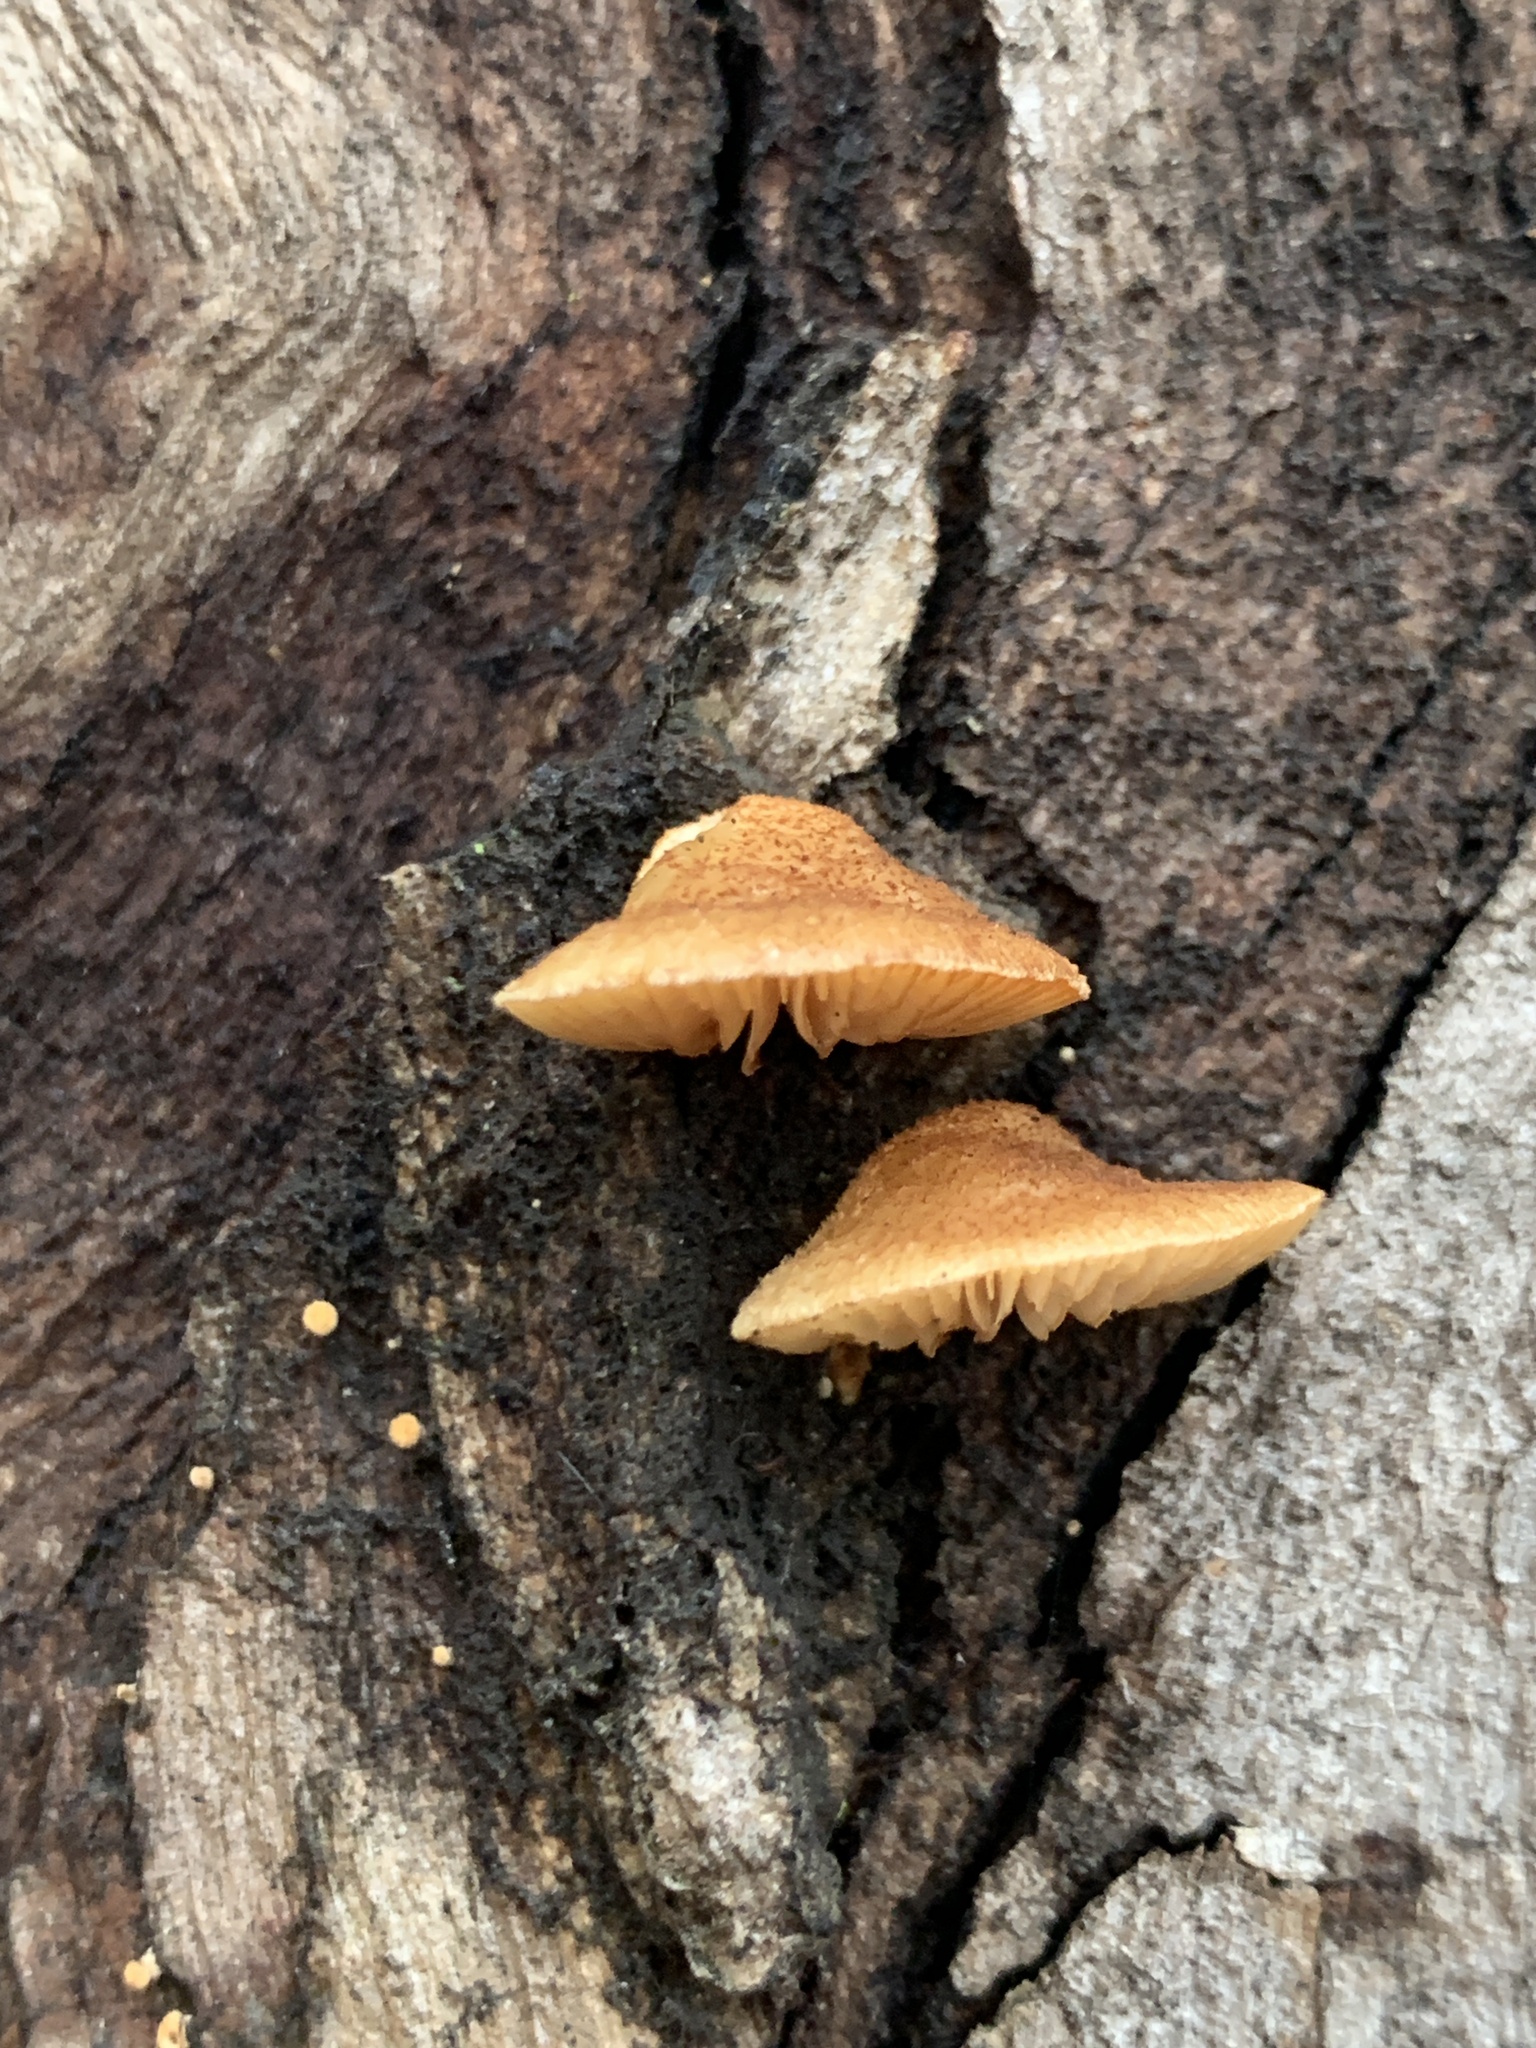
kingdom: Fungi
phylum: Basidiomycota
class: Agaricomycetes
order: Agaricales
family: Crepidotaceae
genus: Crepidotus
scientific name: Crepidotus calolepis
